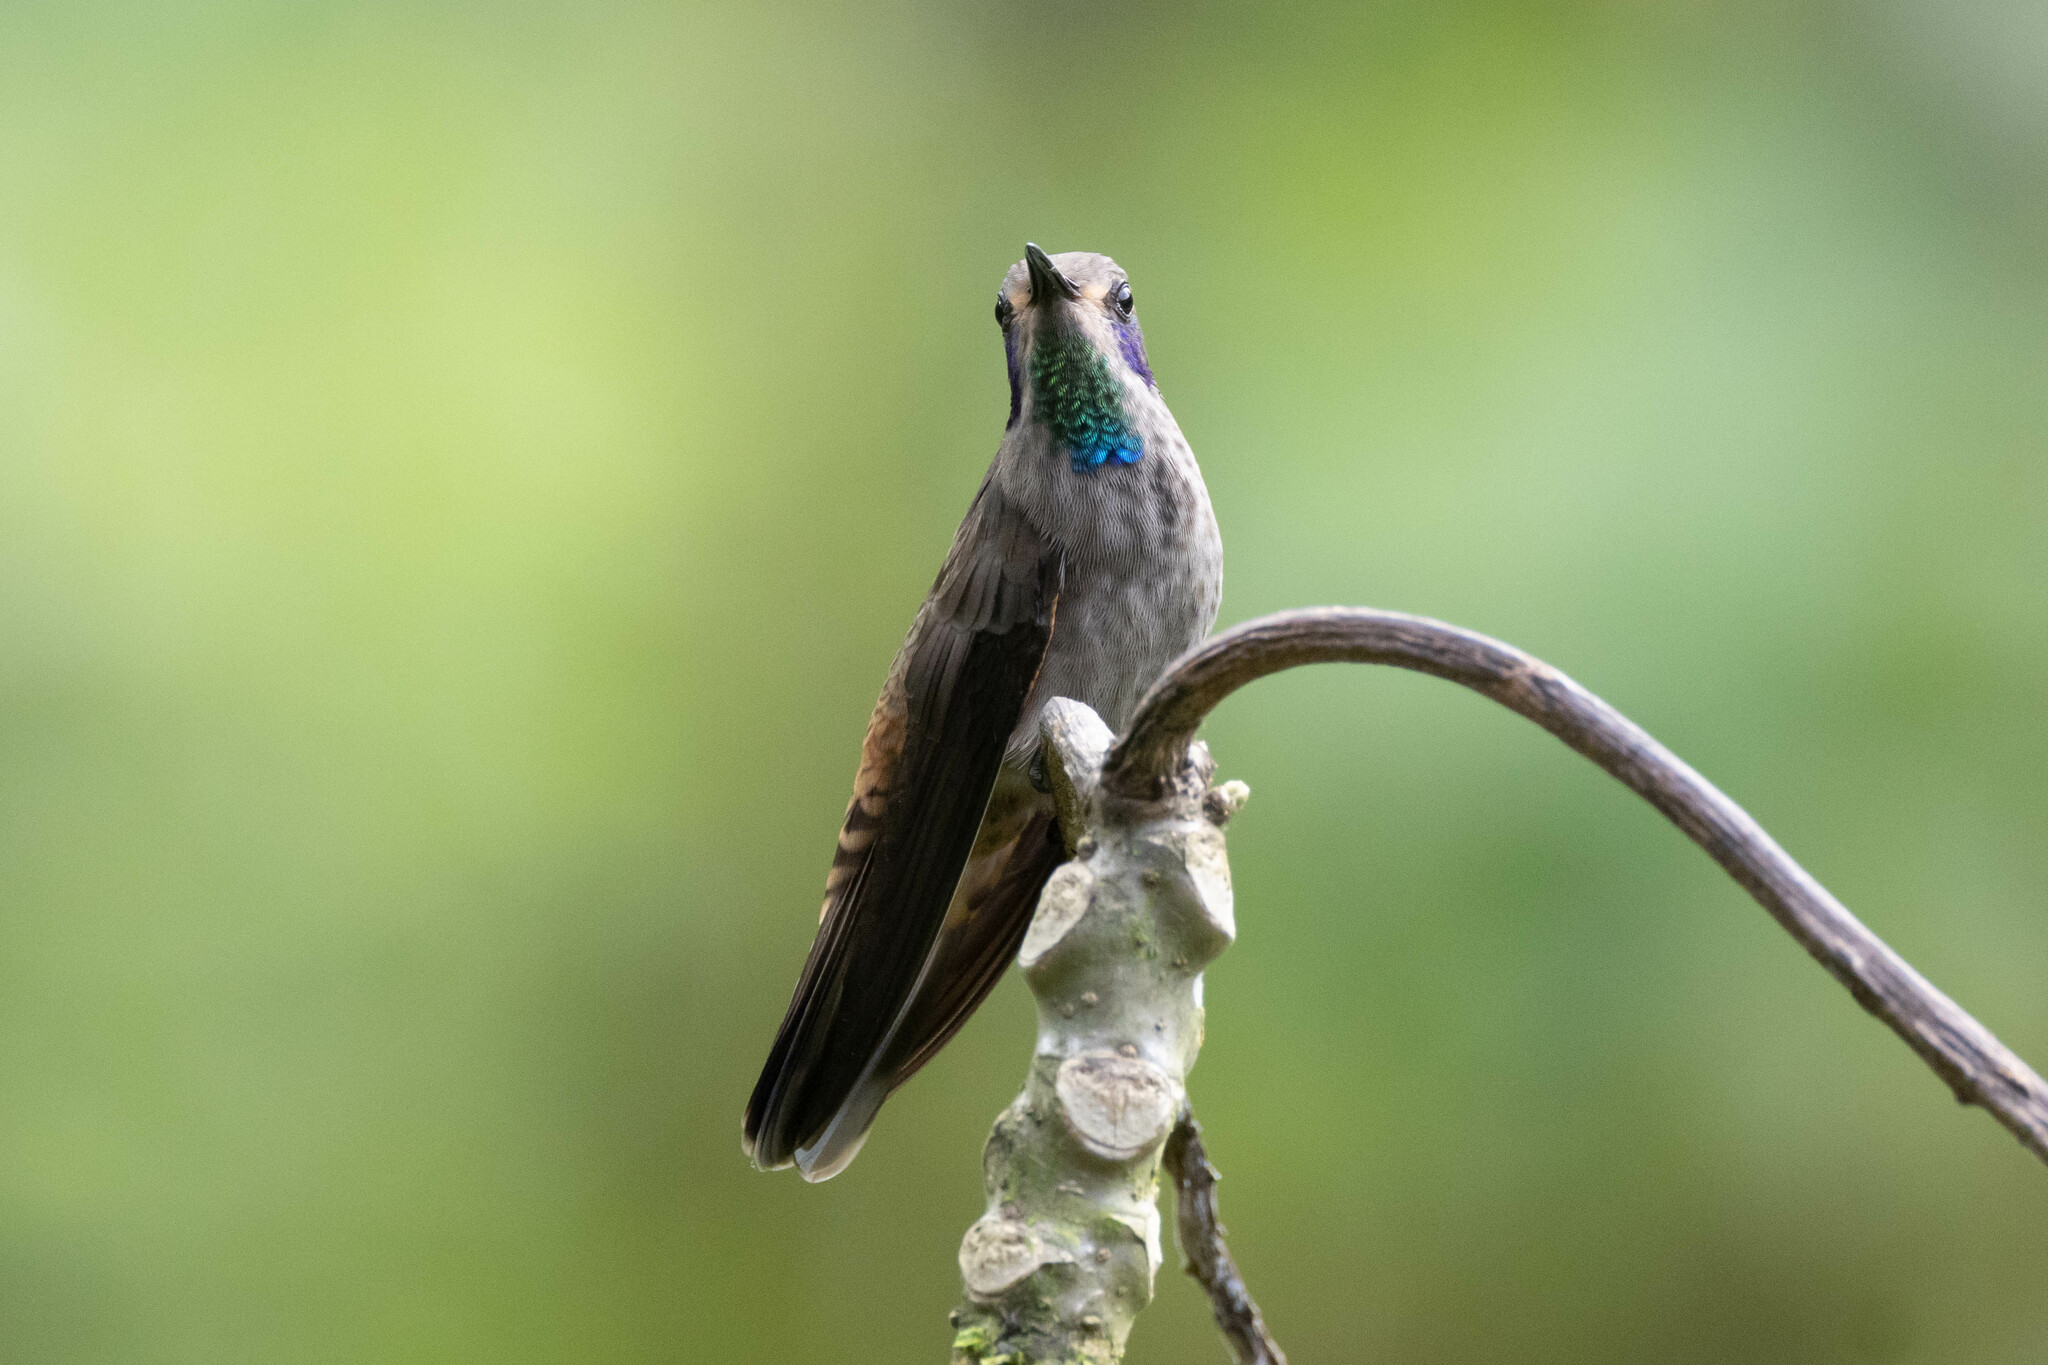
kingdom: Animalia
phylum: Chordata
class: Aves
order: Apodiformes
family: Trochilidae
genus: Colibri
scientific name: Colibri delphinae
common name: Brown violetear
